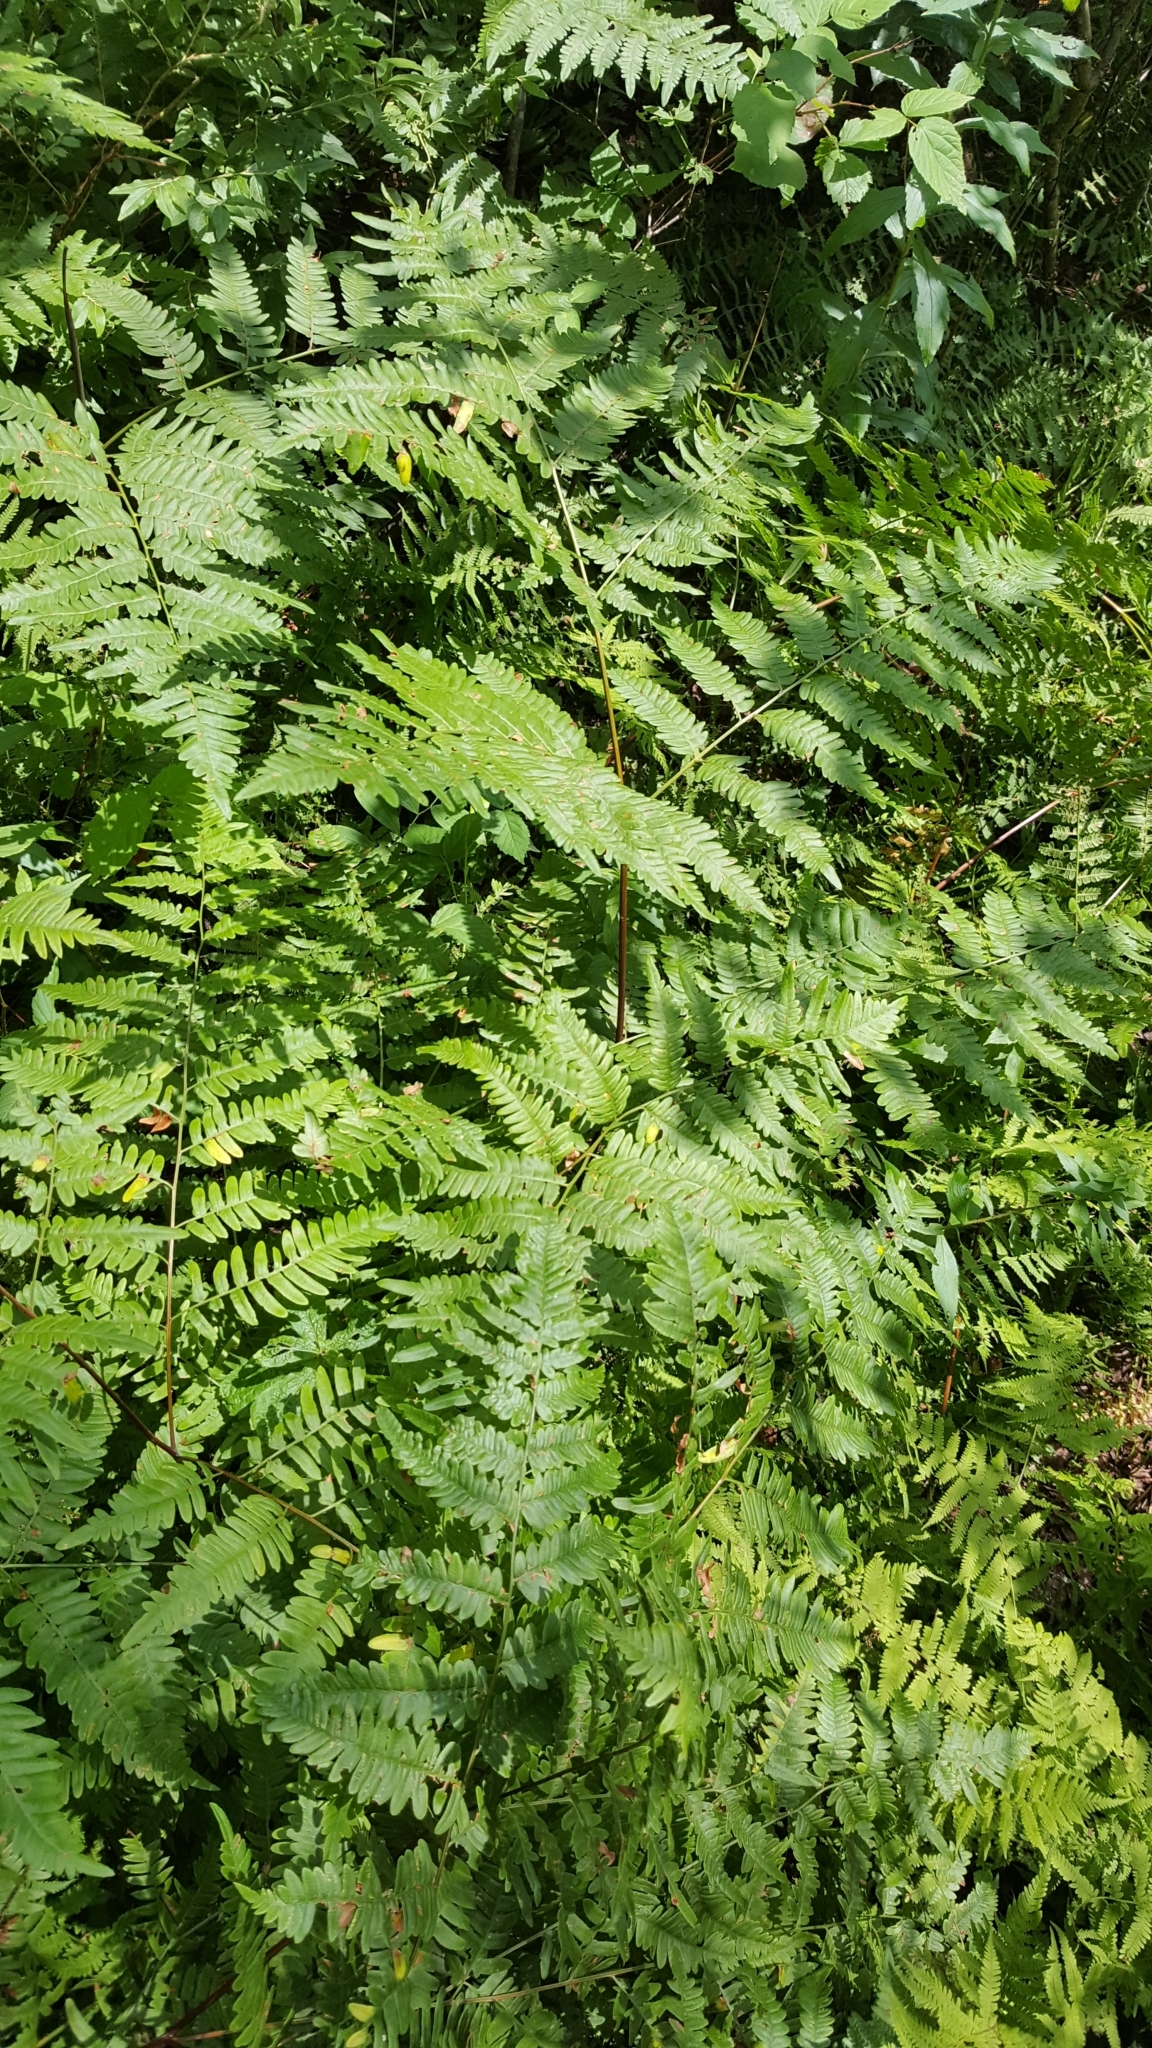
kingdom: Plantae
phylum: Tracheophyta
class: Polypodiopsida
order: Polypodiales
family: Dennstaedtiaceae
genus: Pteridium
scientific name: Pteridium aquilinum
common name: Bracken
